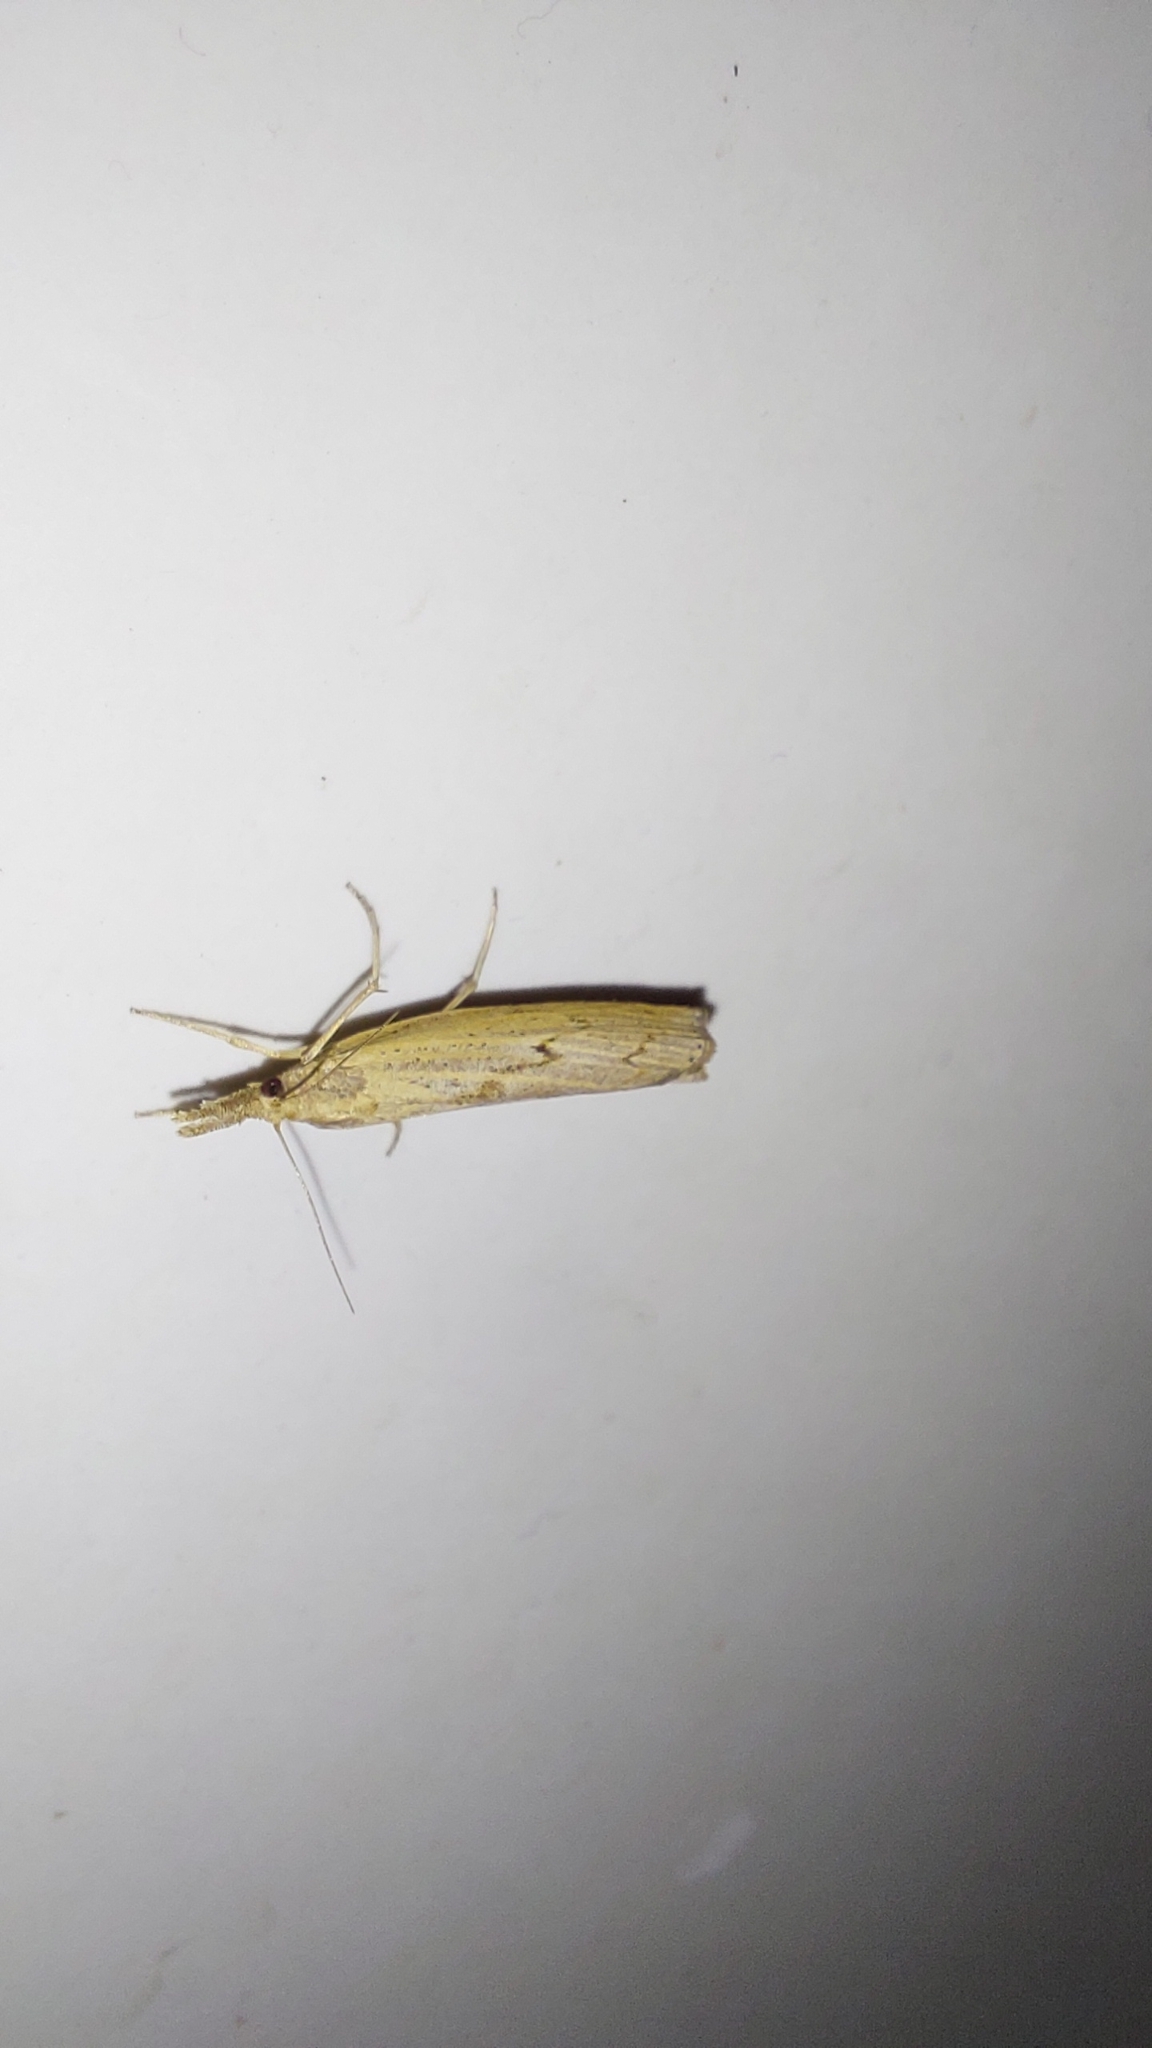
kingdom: Animalia
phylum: Arthropoda
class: Insecta
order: Lepidoptera
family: Crambidae
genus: Pediasia
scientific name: Pediasia contaminella
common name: Waste grass-veneer
